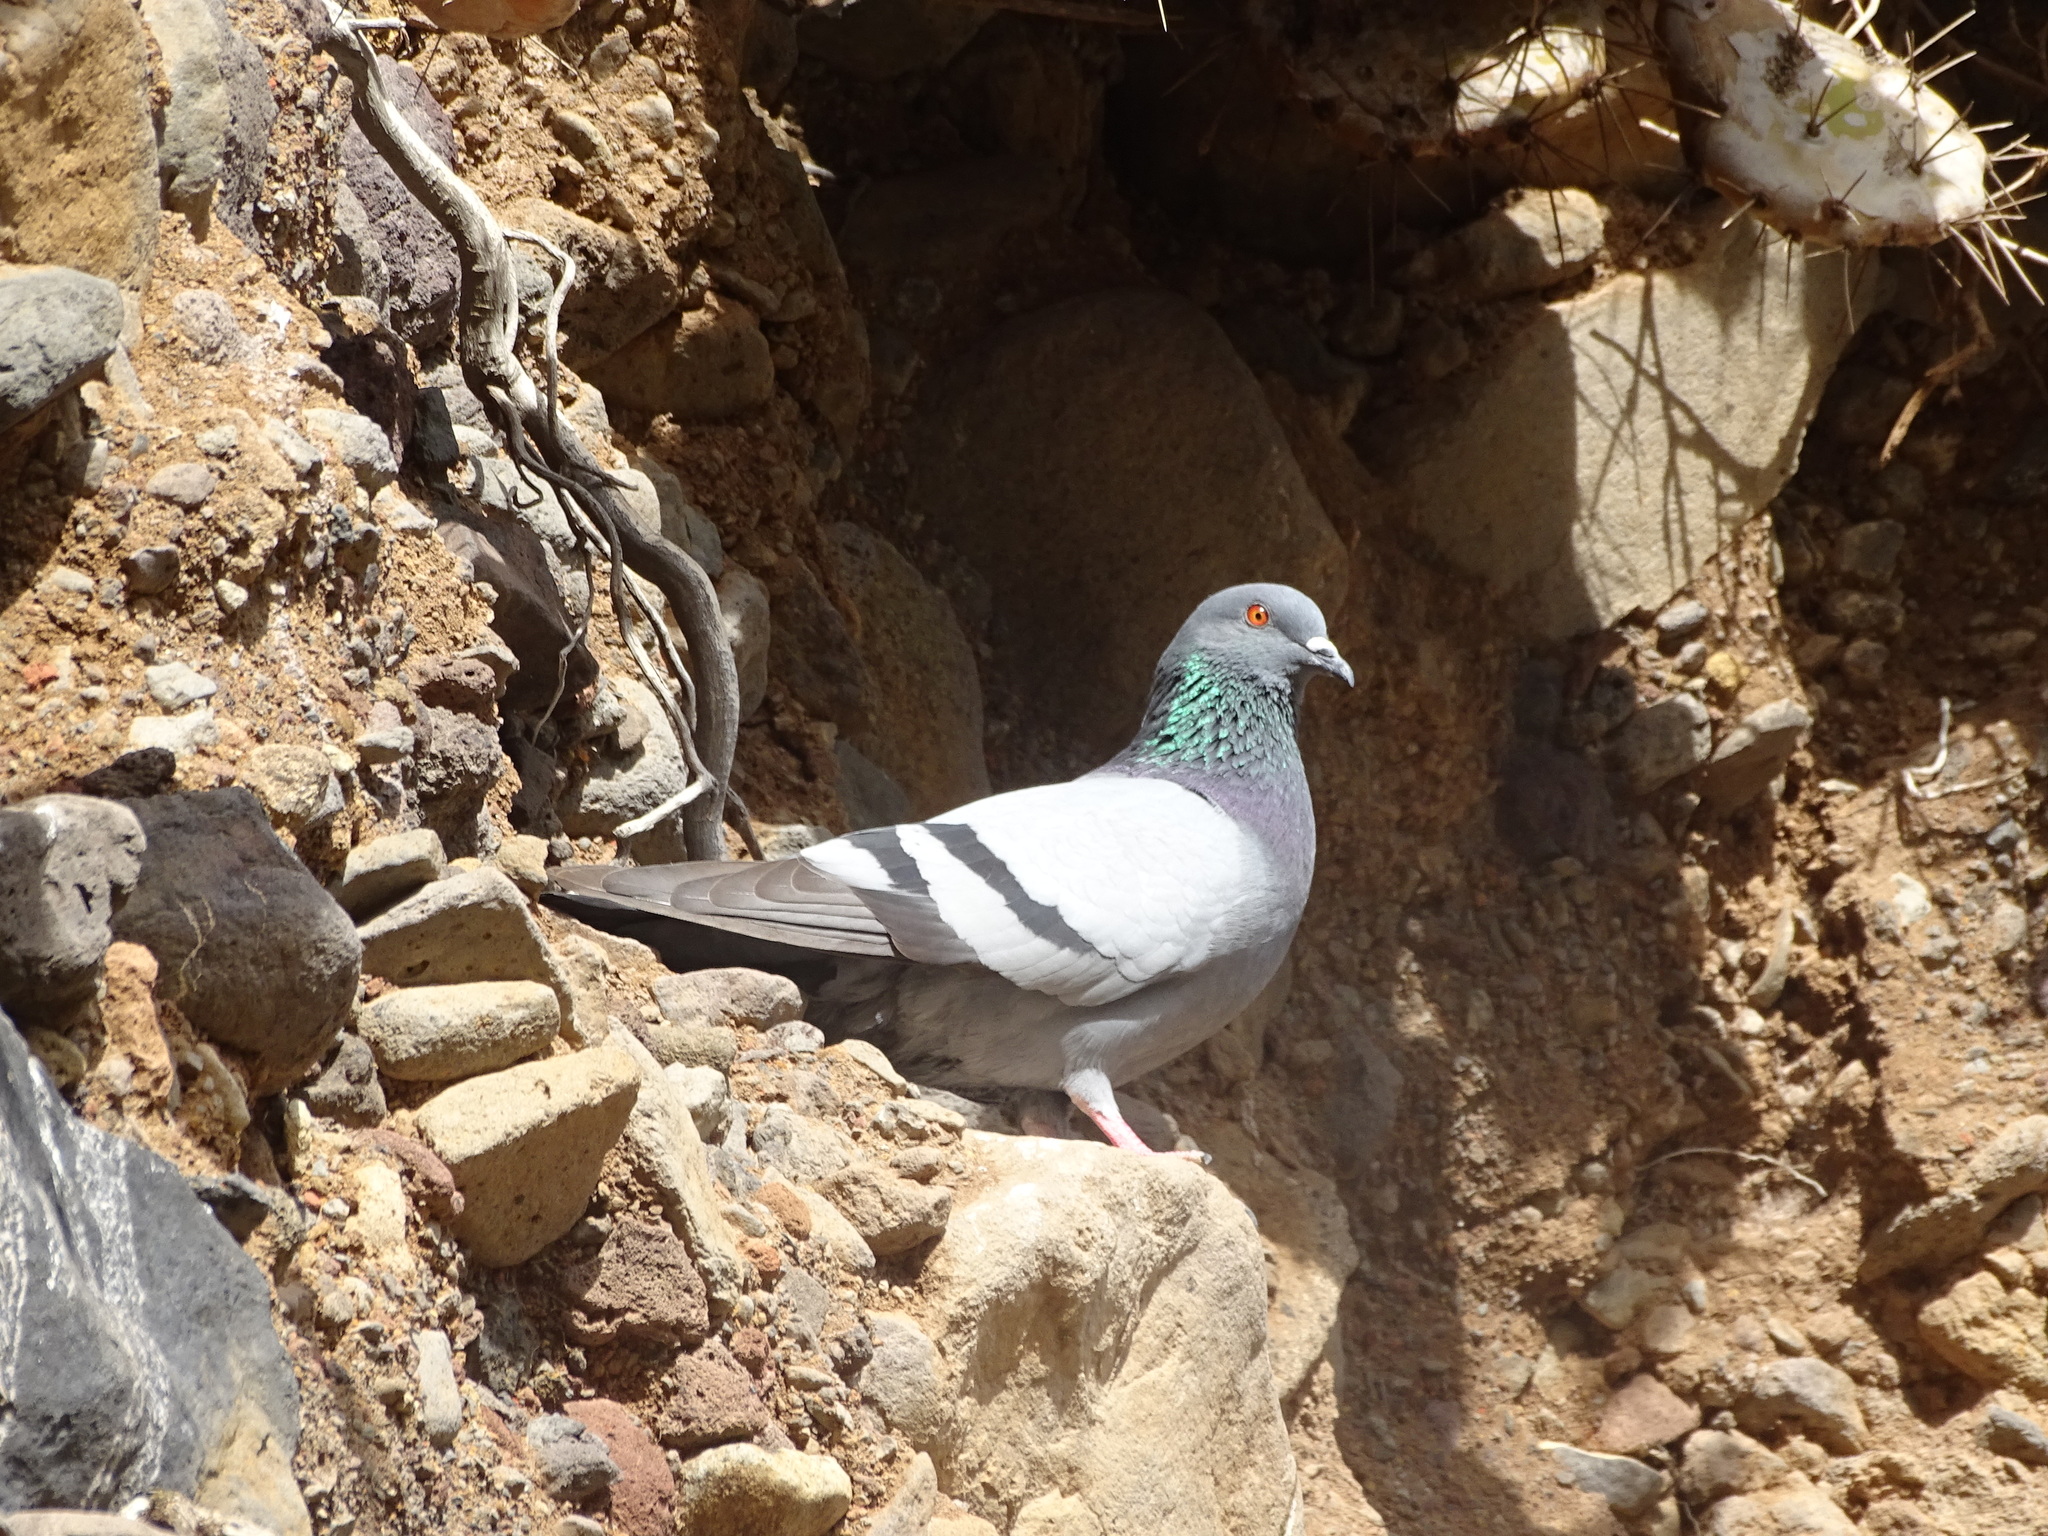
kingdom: Animalia
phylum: Chordata
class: Aves
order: Columbiformes
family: Columbidae
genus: Columba
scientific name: Columba livia
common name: Rock pigeon
